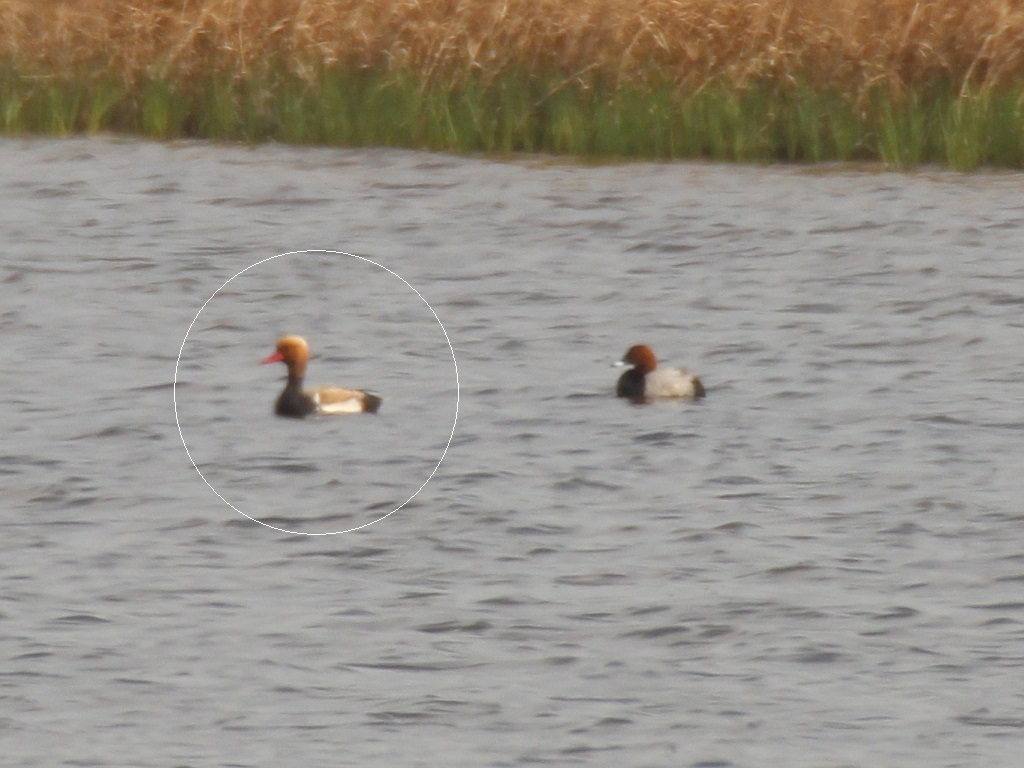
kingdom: Animalia
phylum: Chordata
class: Aves
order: Anseriformes
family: Anatidae
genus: Netta
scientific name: Netta rufina
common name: Red-crested pochard
